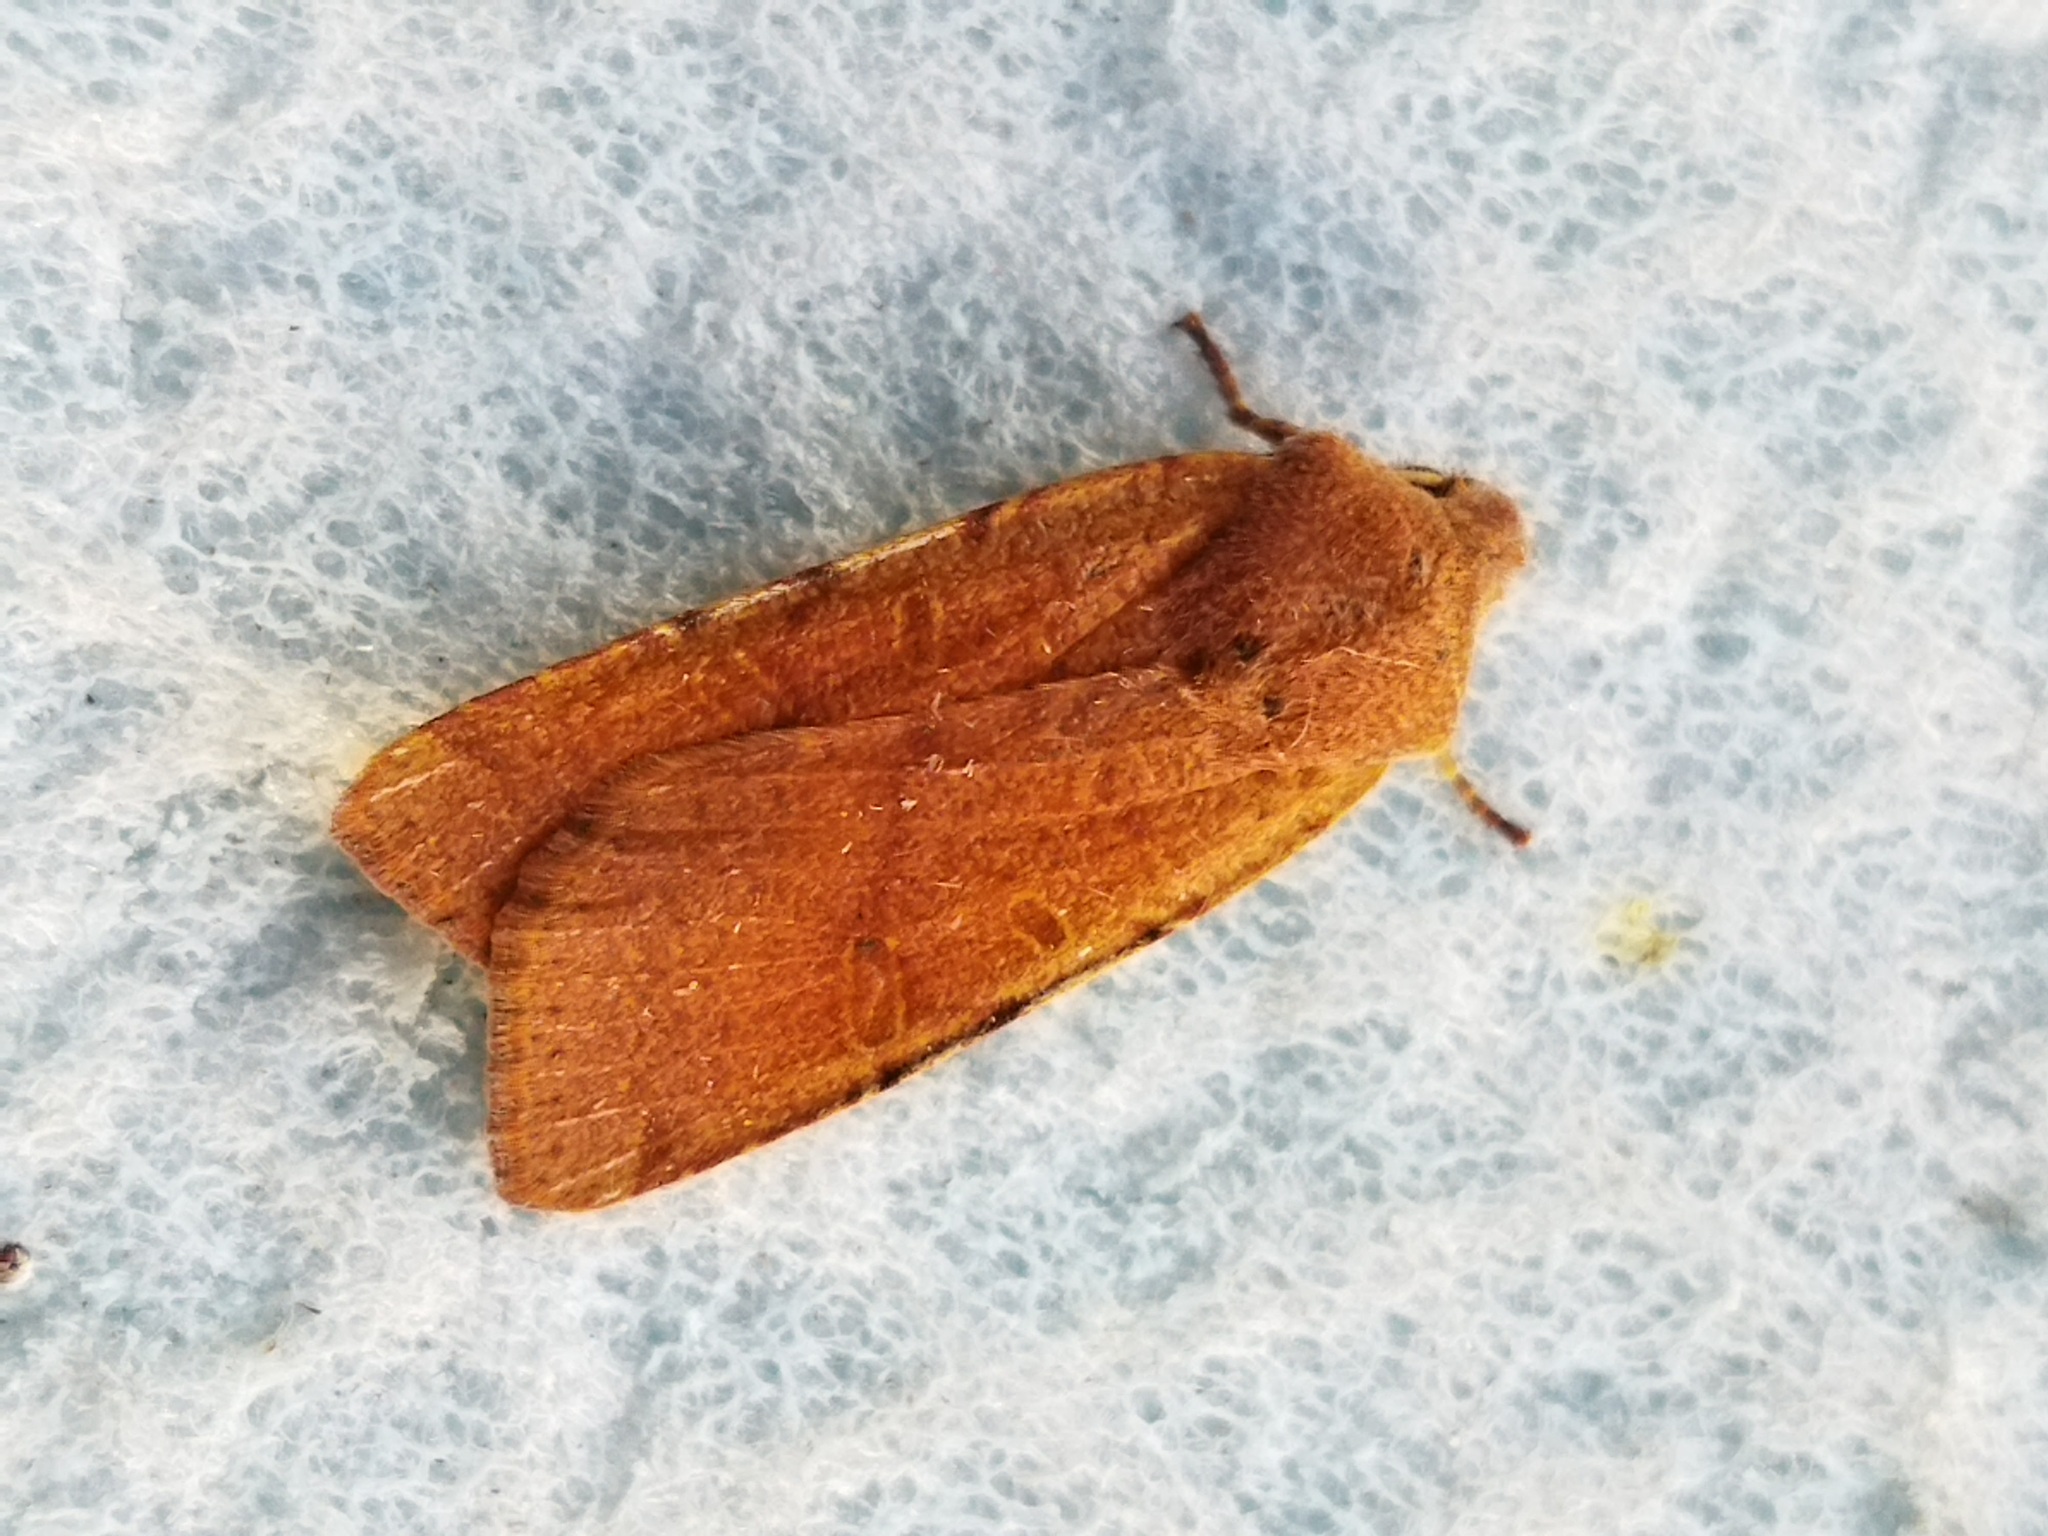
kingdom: Animalia
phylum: Arthropoda
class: Insecta
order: Lepidoptera
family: Noctuidae
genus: Agrochola
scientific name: Agrochola lychnidis
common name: Beaded chestnut
